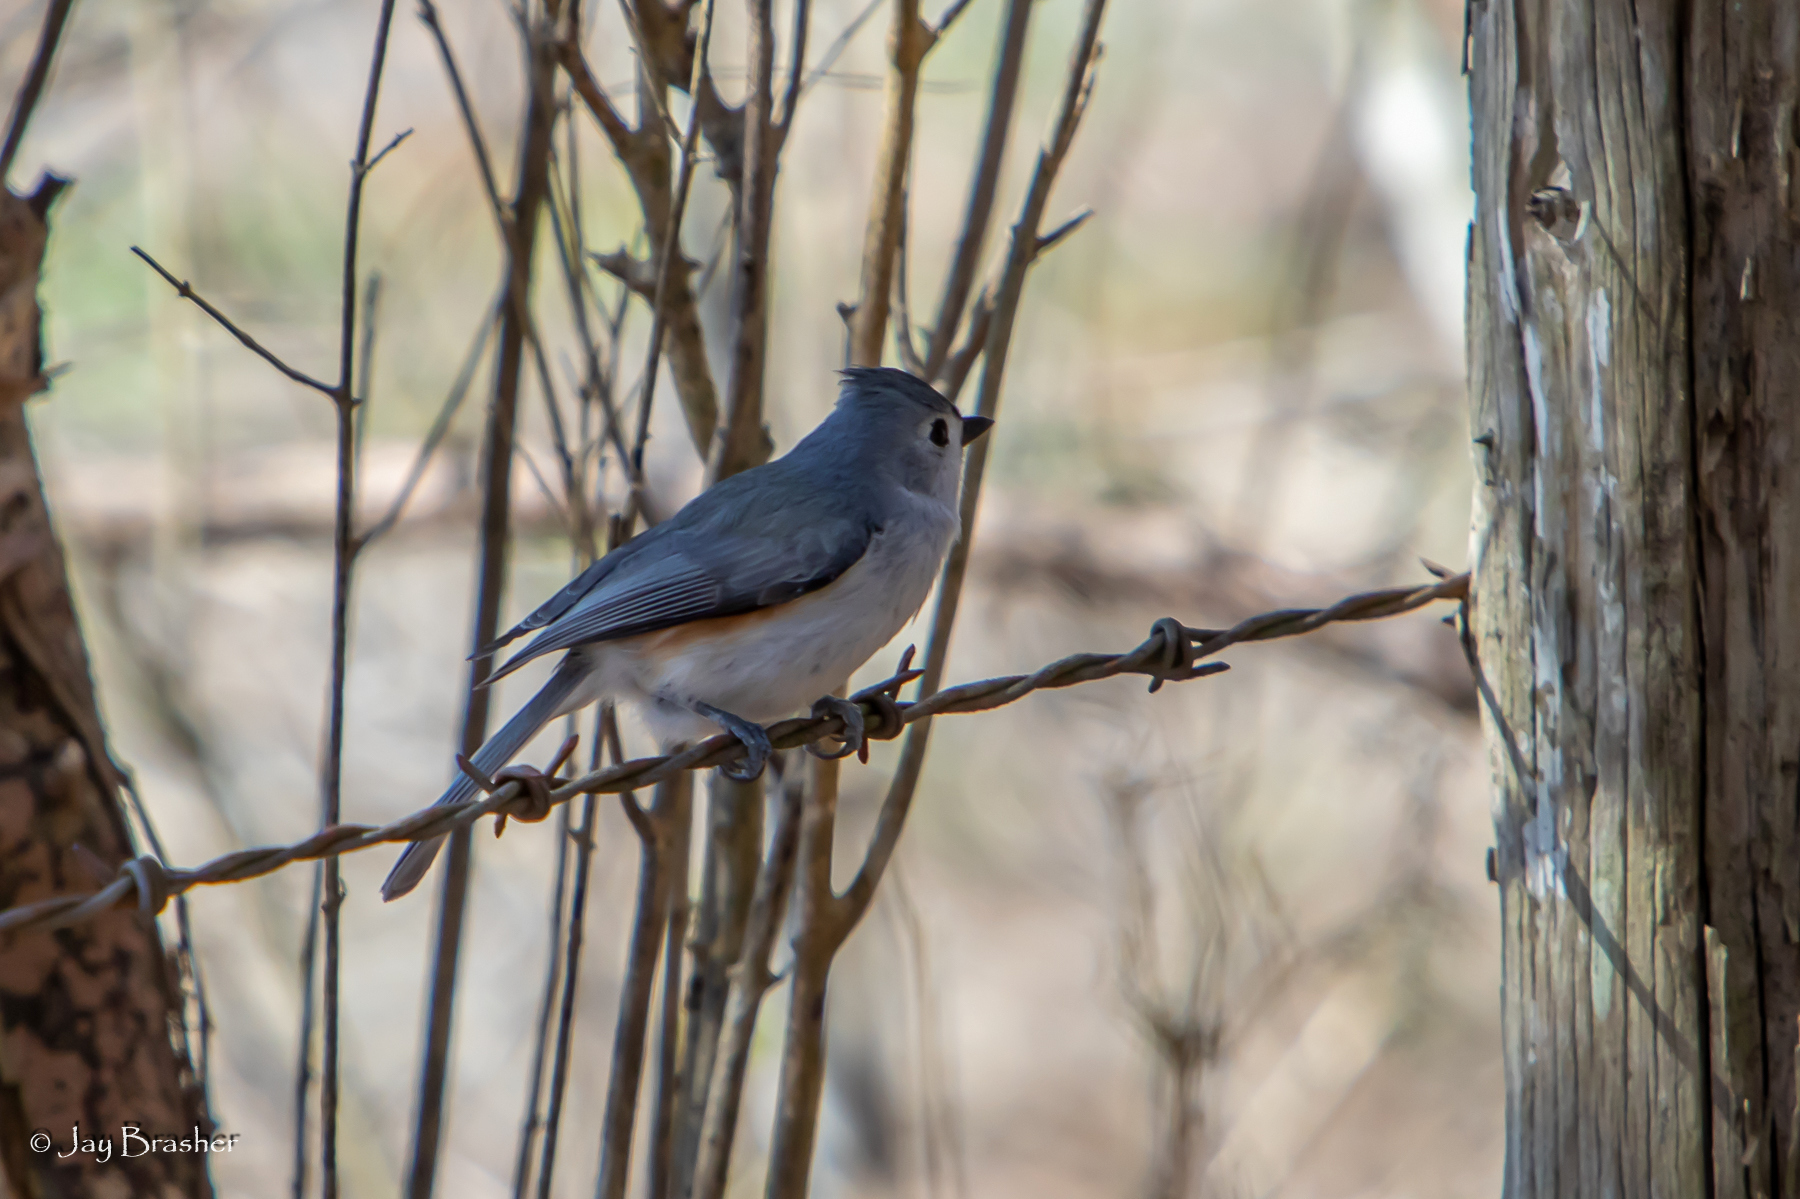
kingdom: Animalia
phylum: Chordata
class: Aves
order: Passeriformes
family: Paridae
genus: Baeolophus
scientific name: Baeolophus bicolor
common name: Tufted titmouse
